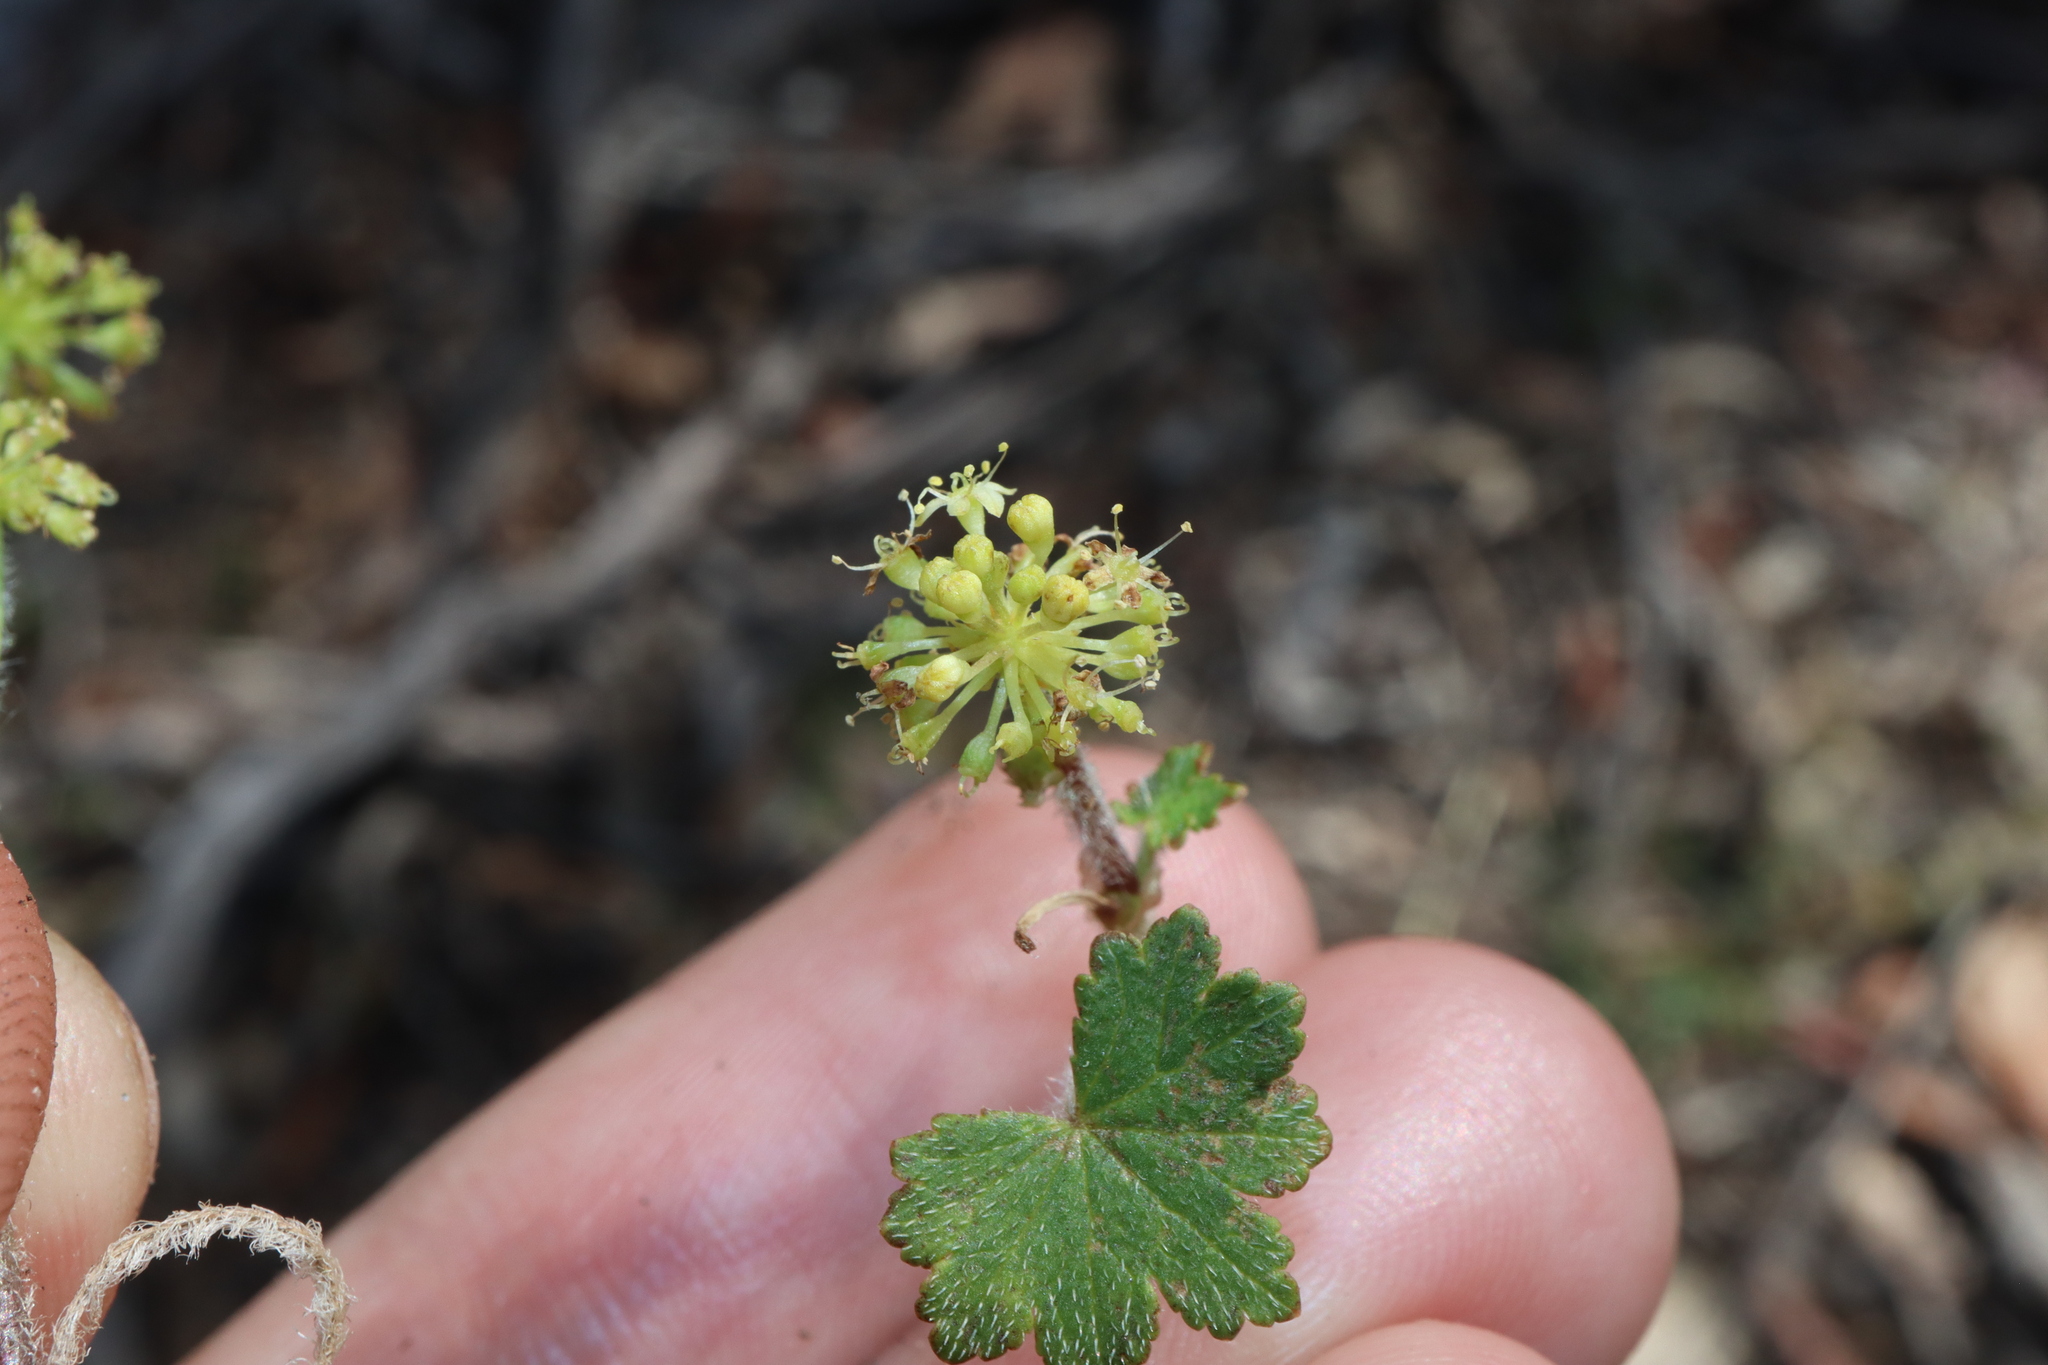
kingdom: Plantae
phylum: Tracheophyta
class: Magnoliopsida
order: Apiales
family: Araliaceae
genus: Hydrocotyle
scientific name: Hydrocotyle laxiflora
